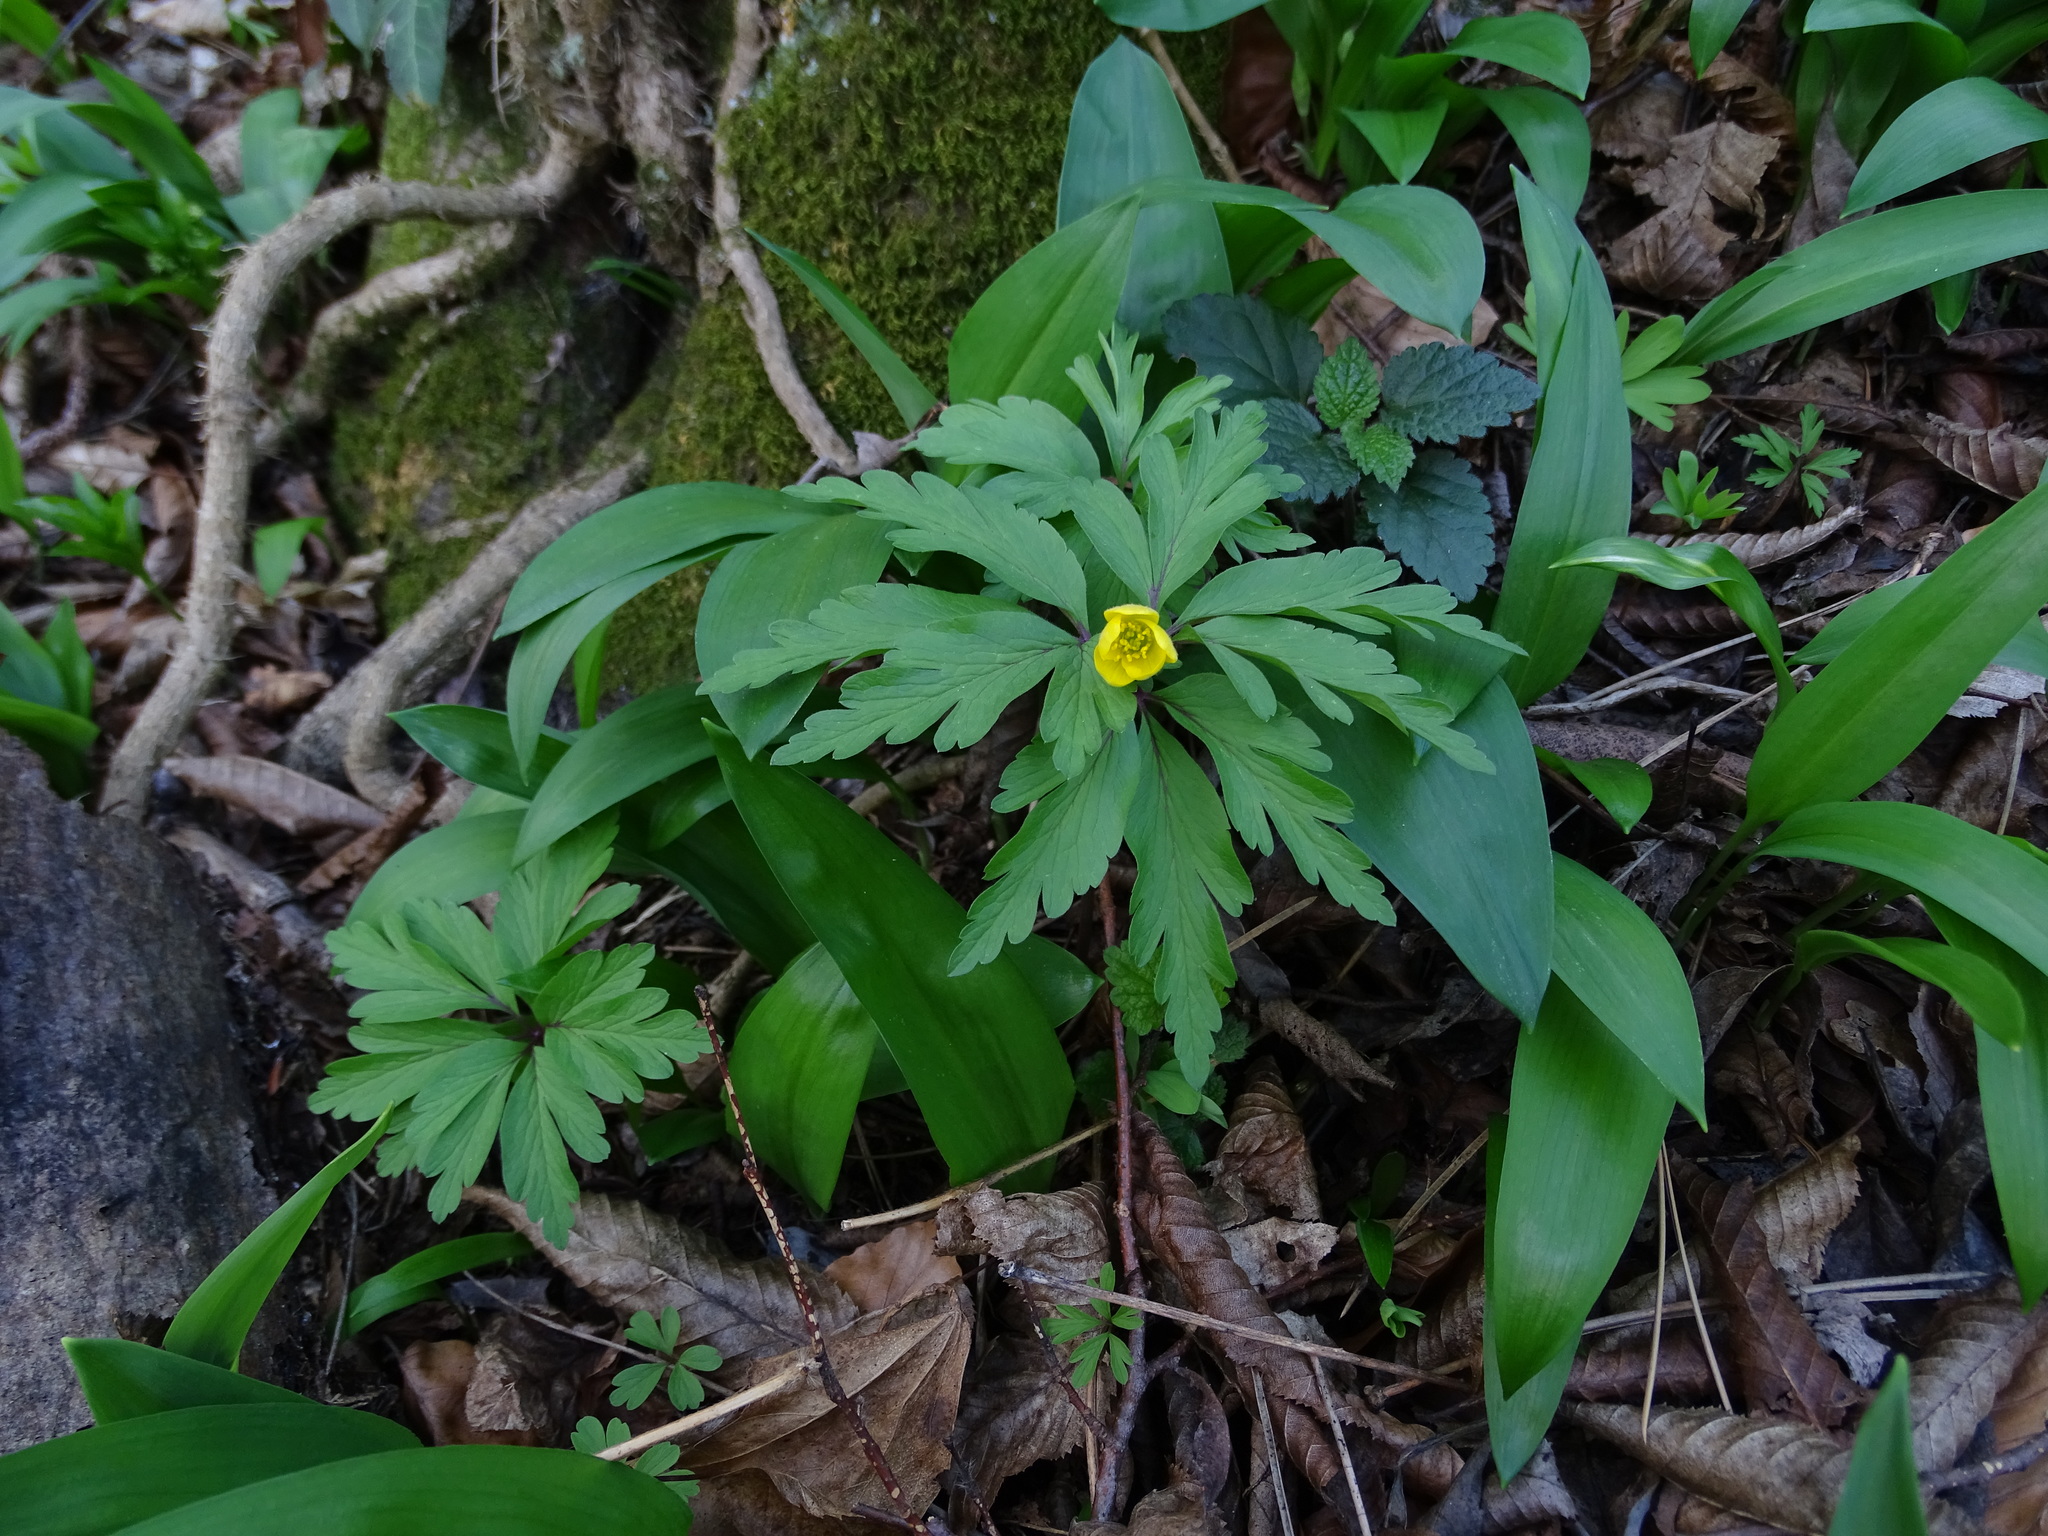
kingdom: Plantae
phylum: Tracheophyta
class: Magnoliopsida
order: Ranunculales
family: Ranunculaceae
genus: Anemone
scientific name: Anemone ranunculoides
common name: Yellow anemone
